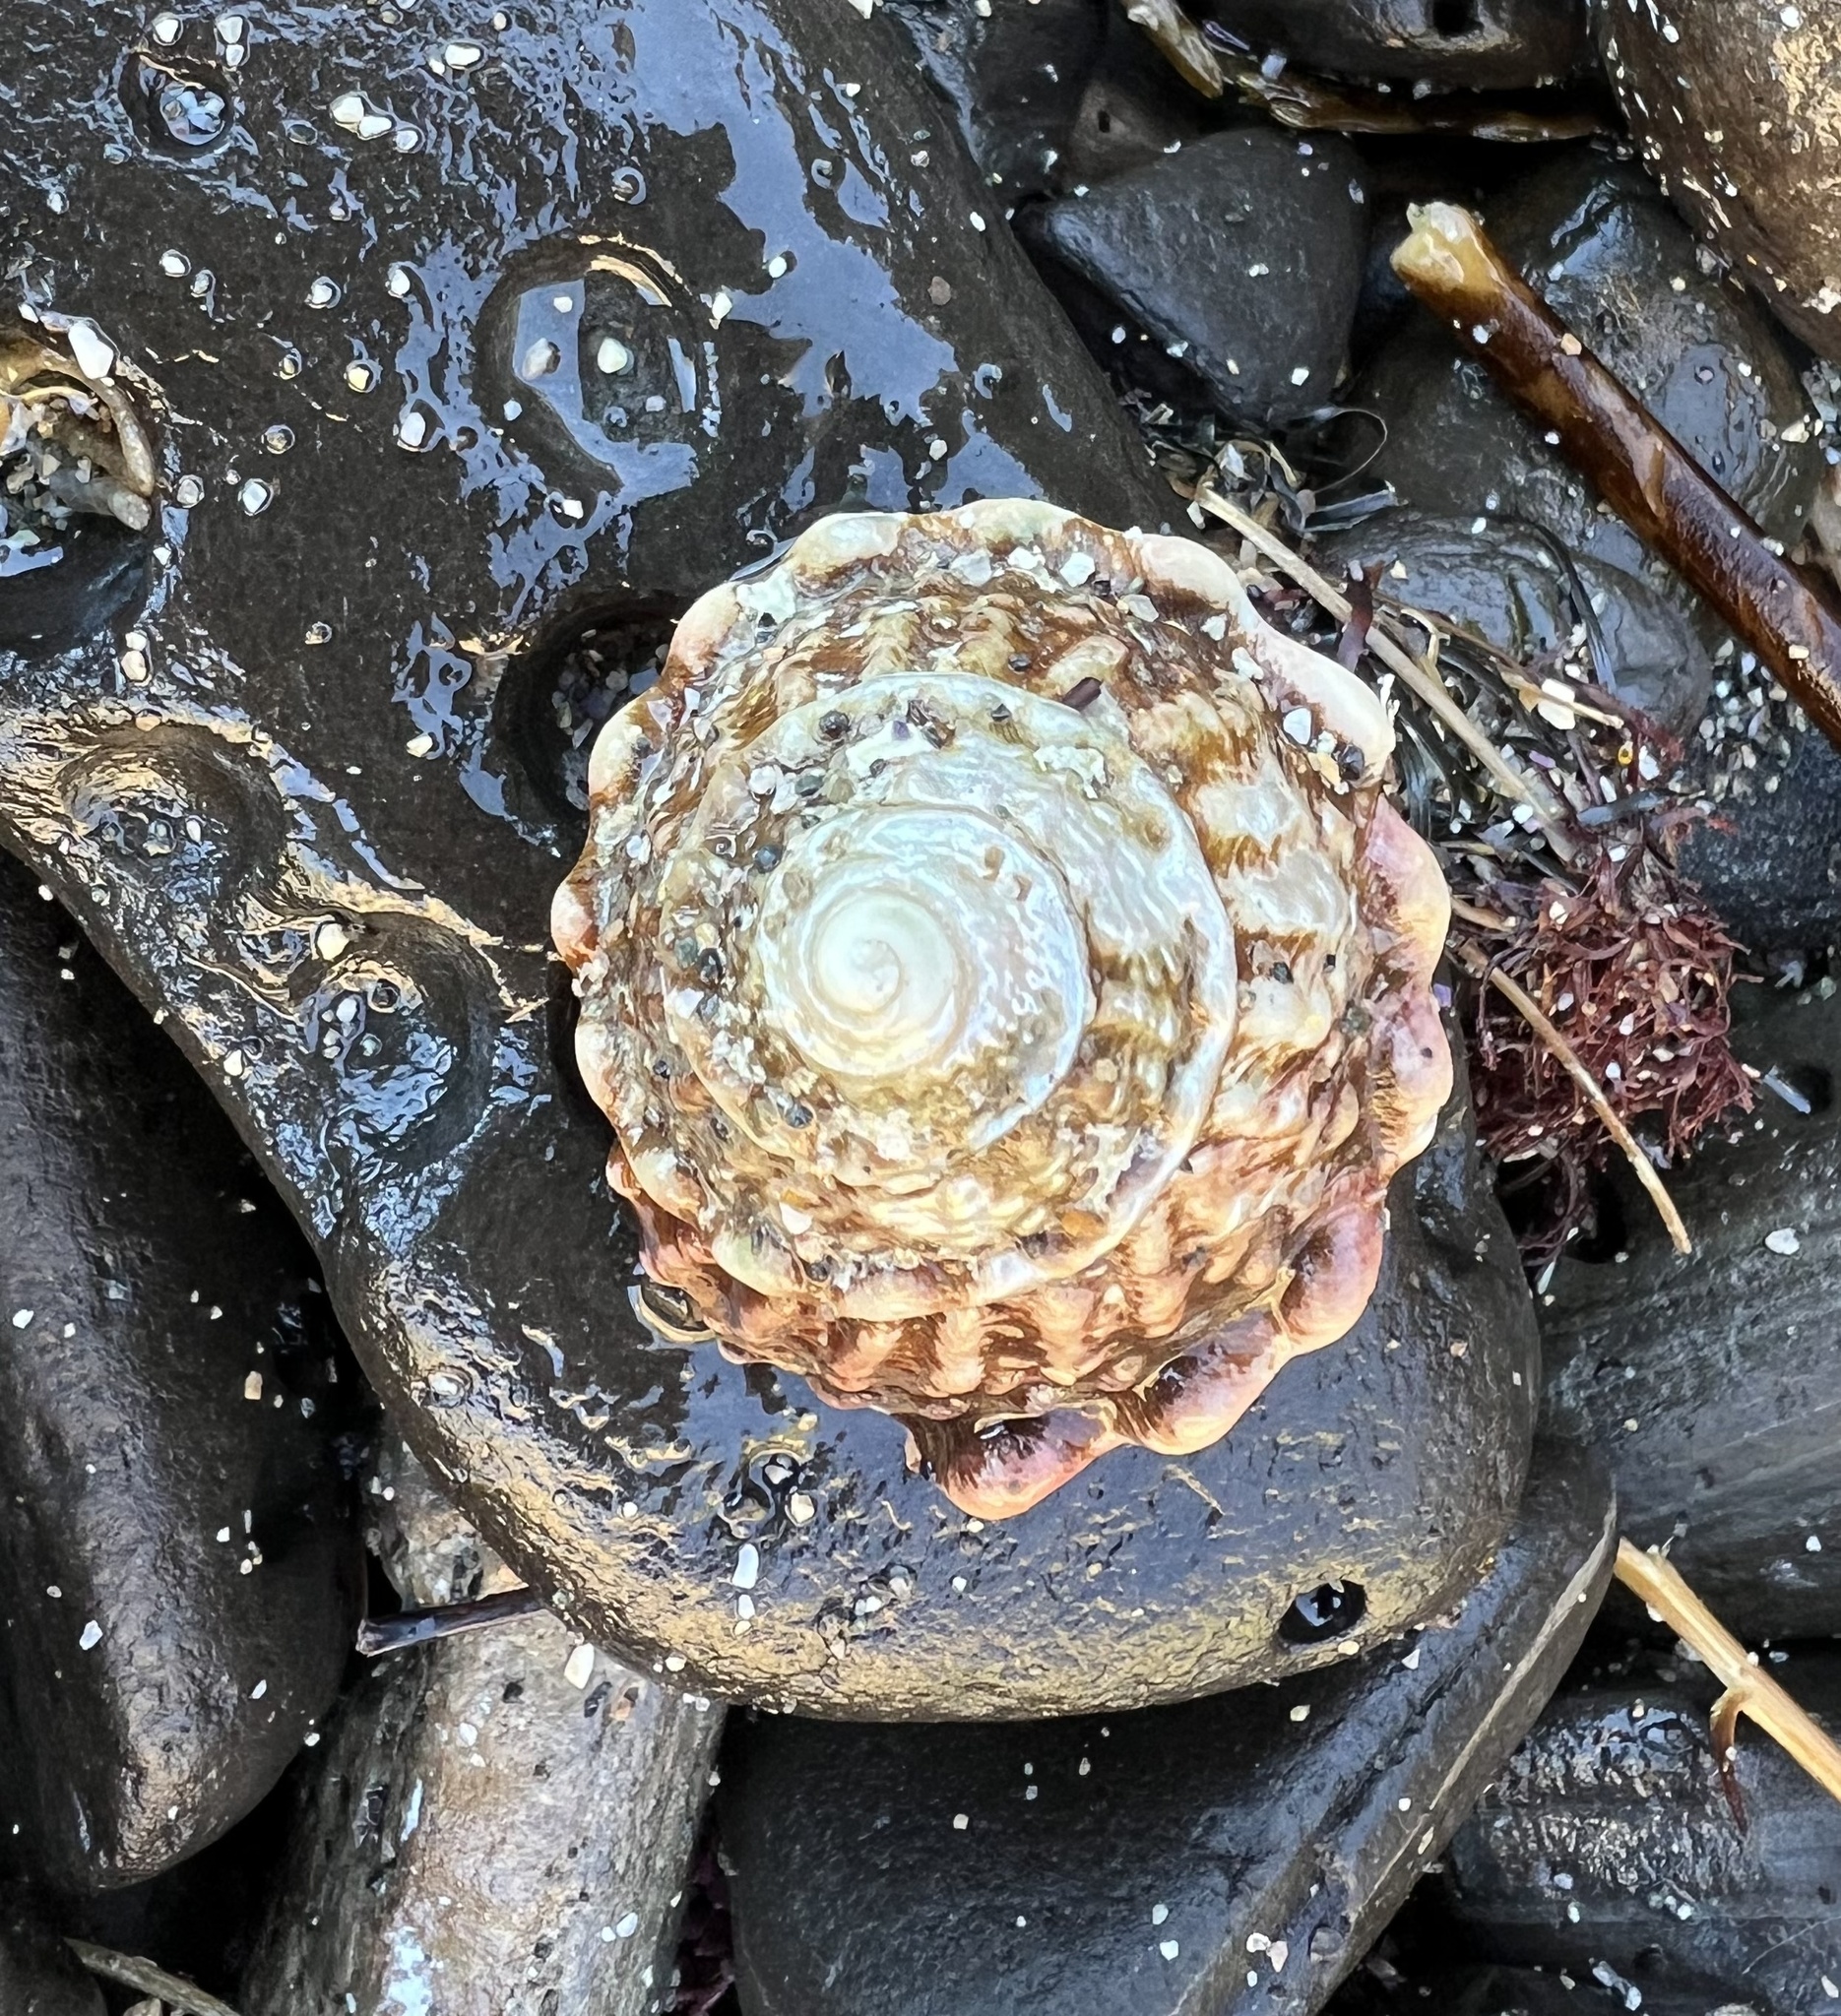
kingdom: Animalia
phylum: Mollusca
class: Gastropoda
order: Trochida
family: Turbinidae
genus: Megastraea
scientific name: Megastraea undosa
